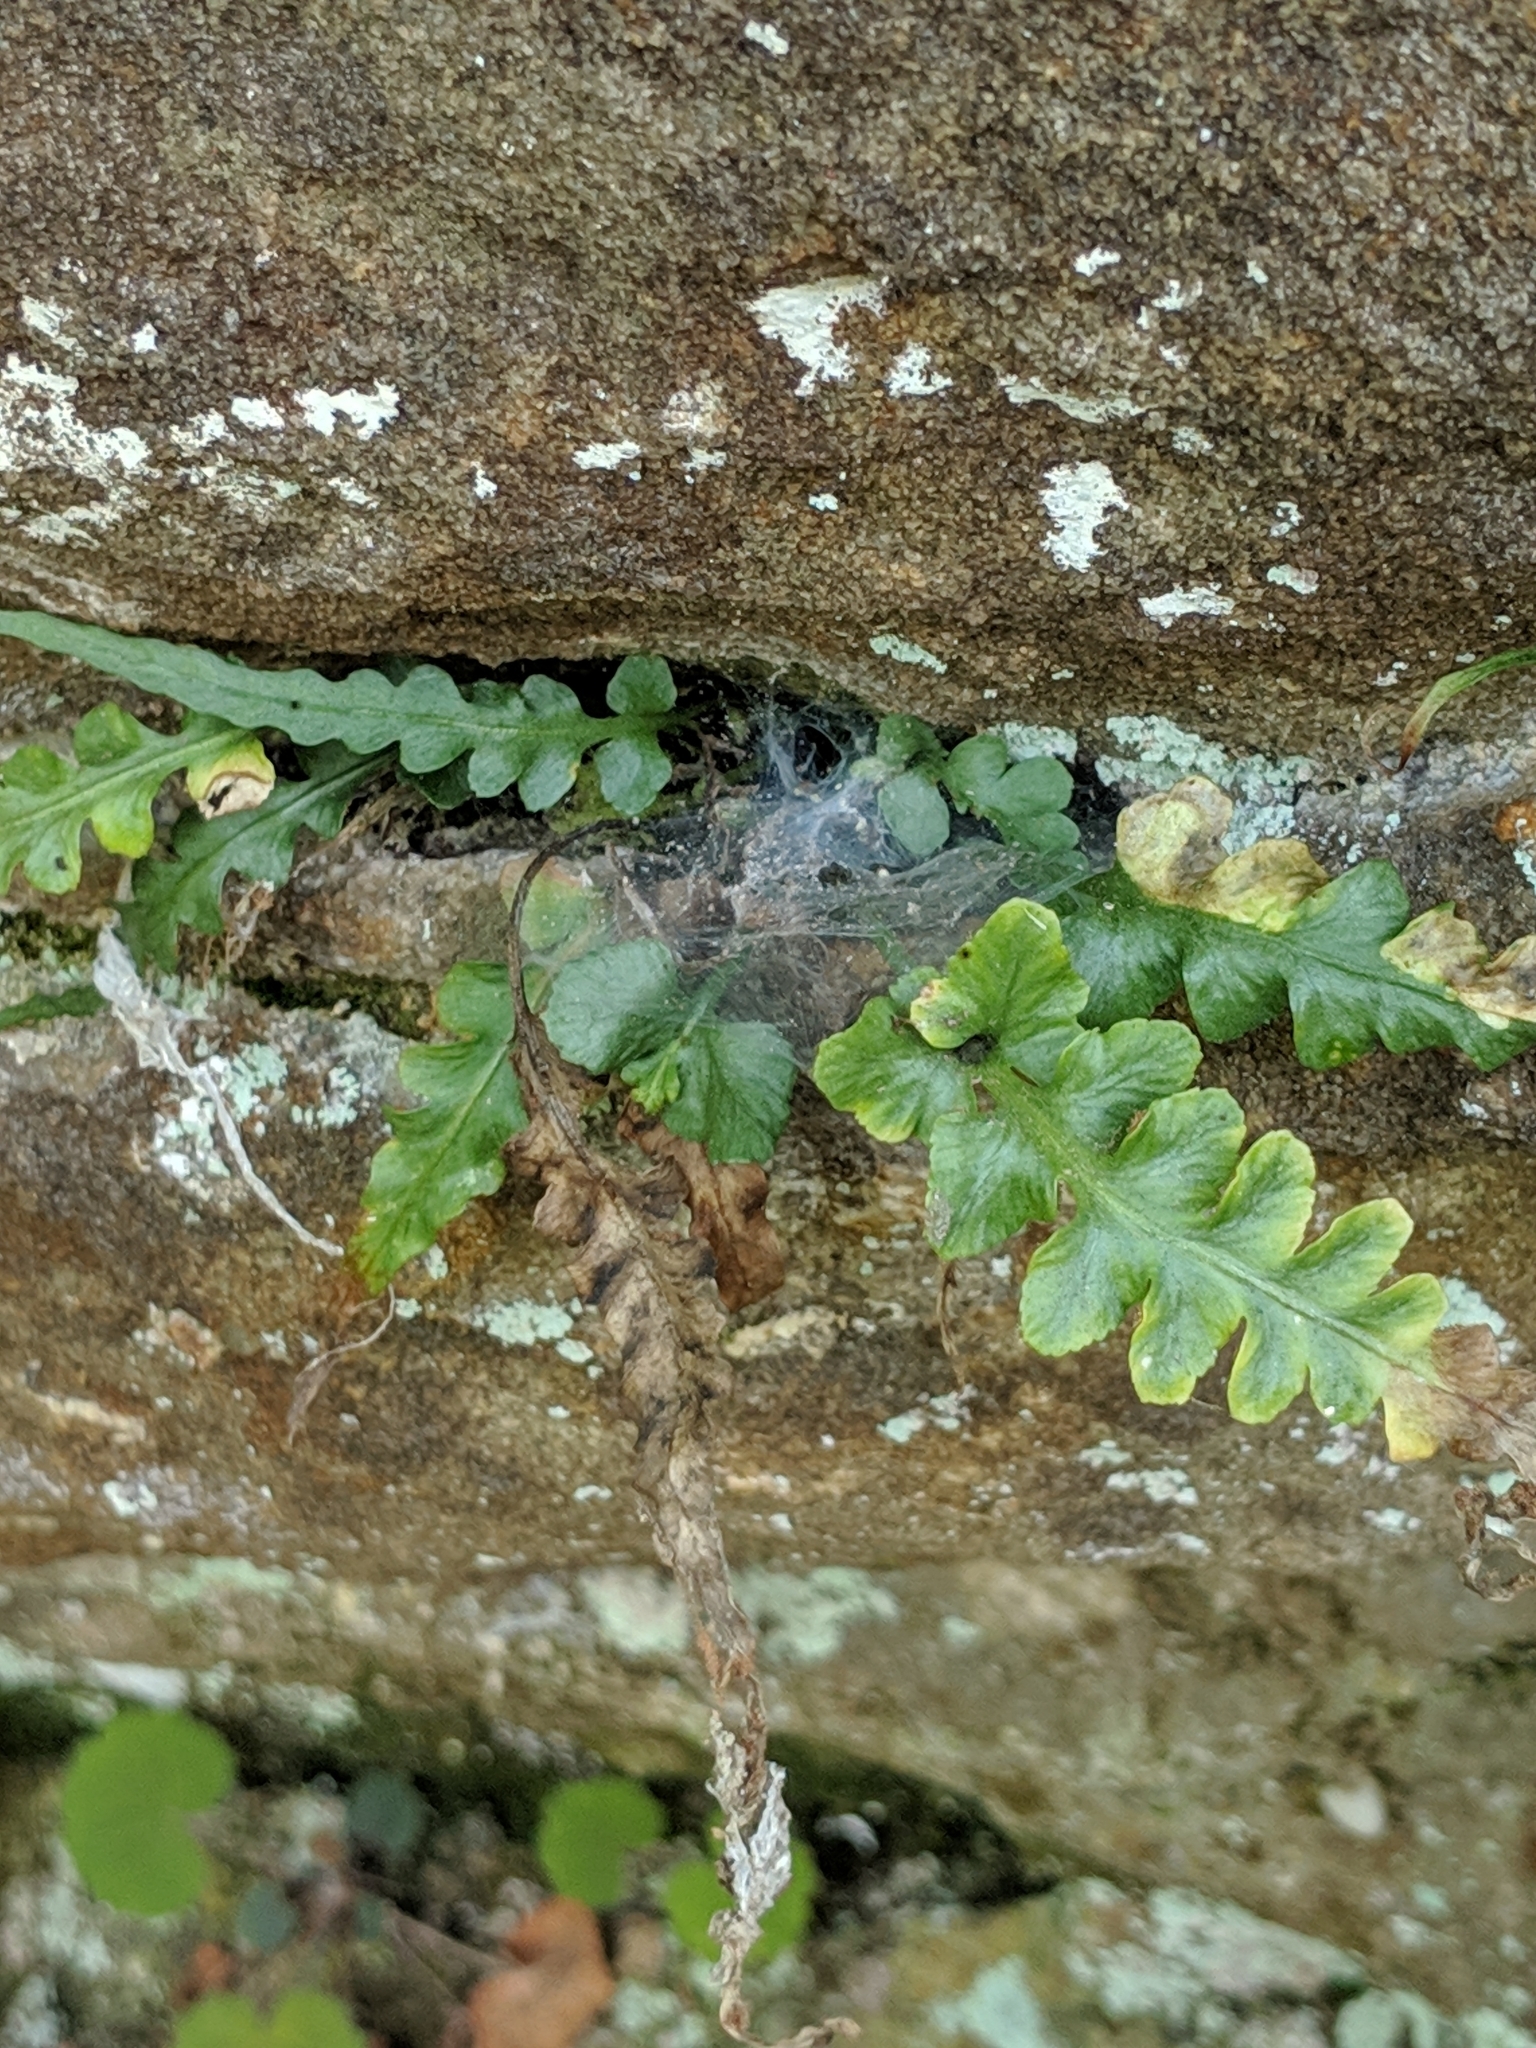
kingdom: Plantae
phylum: Tracheophyta
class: Polypodiopsida
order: Polypodiales
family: Aspleniaceae
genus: Asplenium
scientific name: Asplenium pinnatifidum
